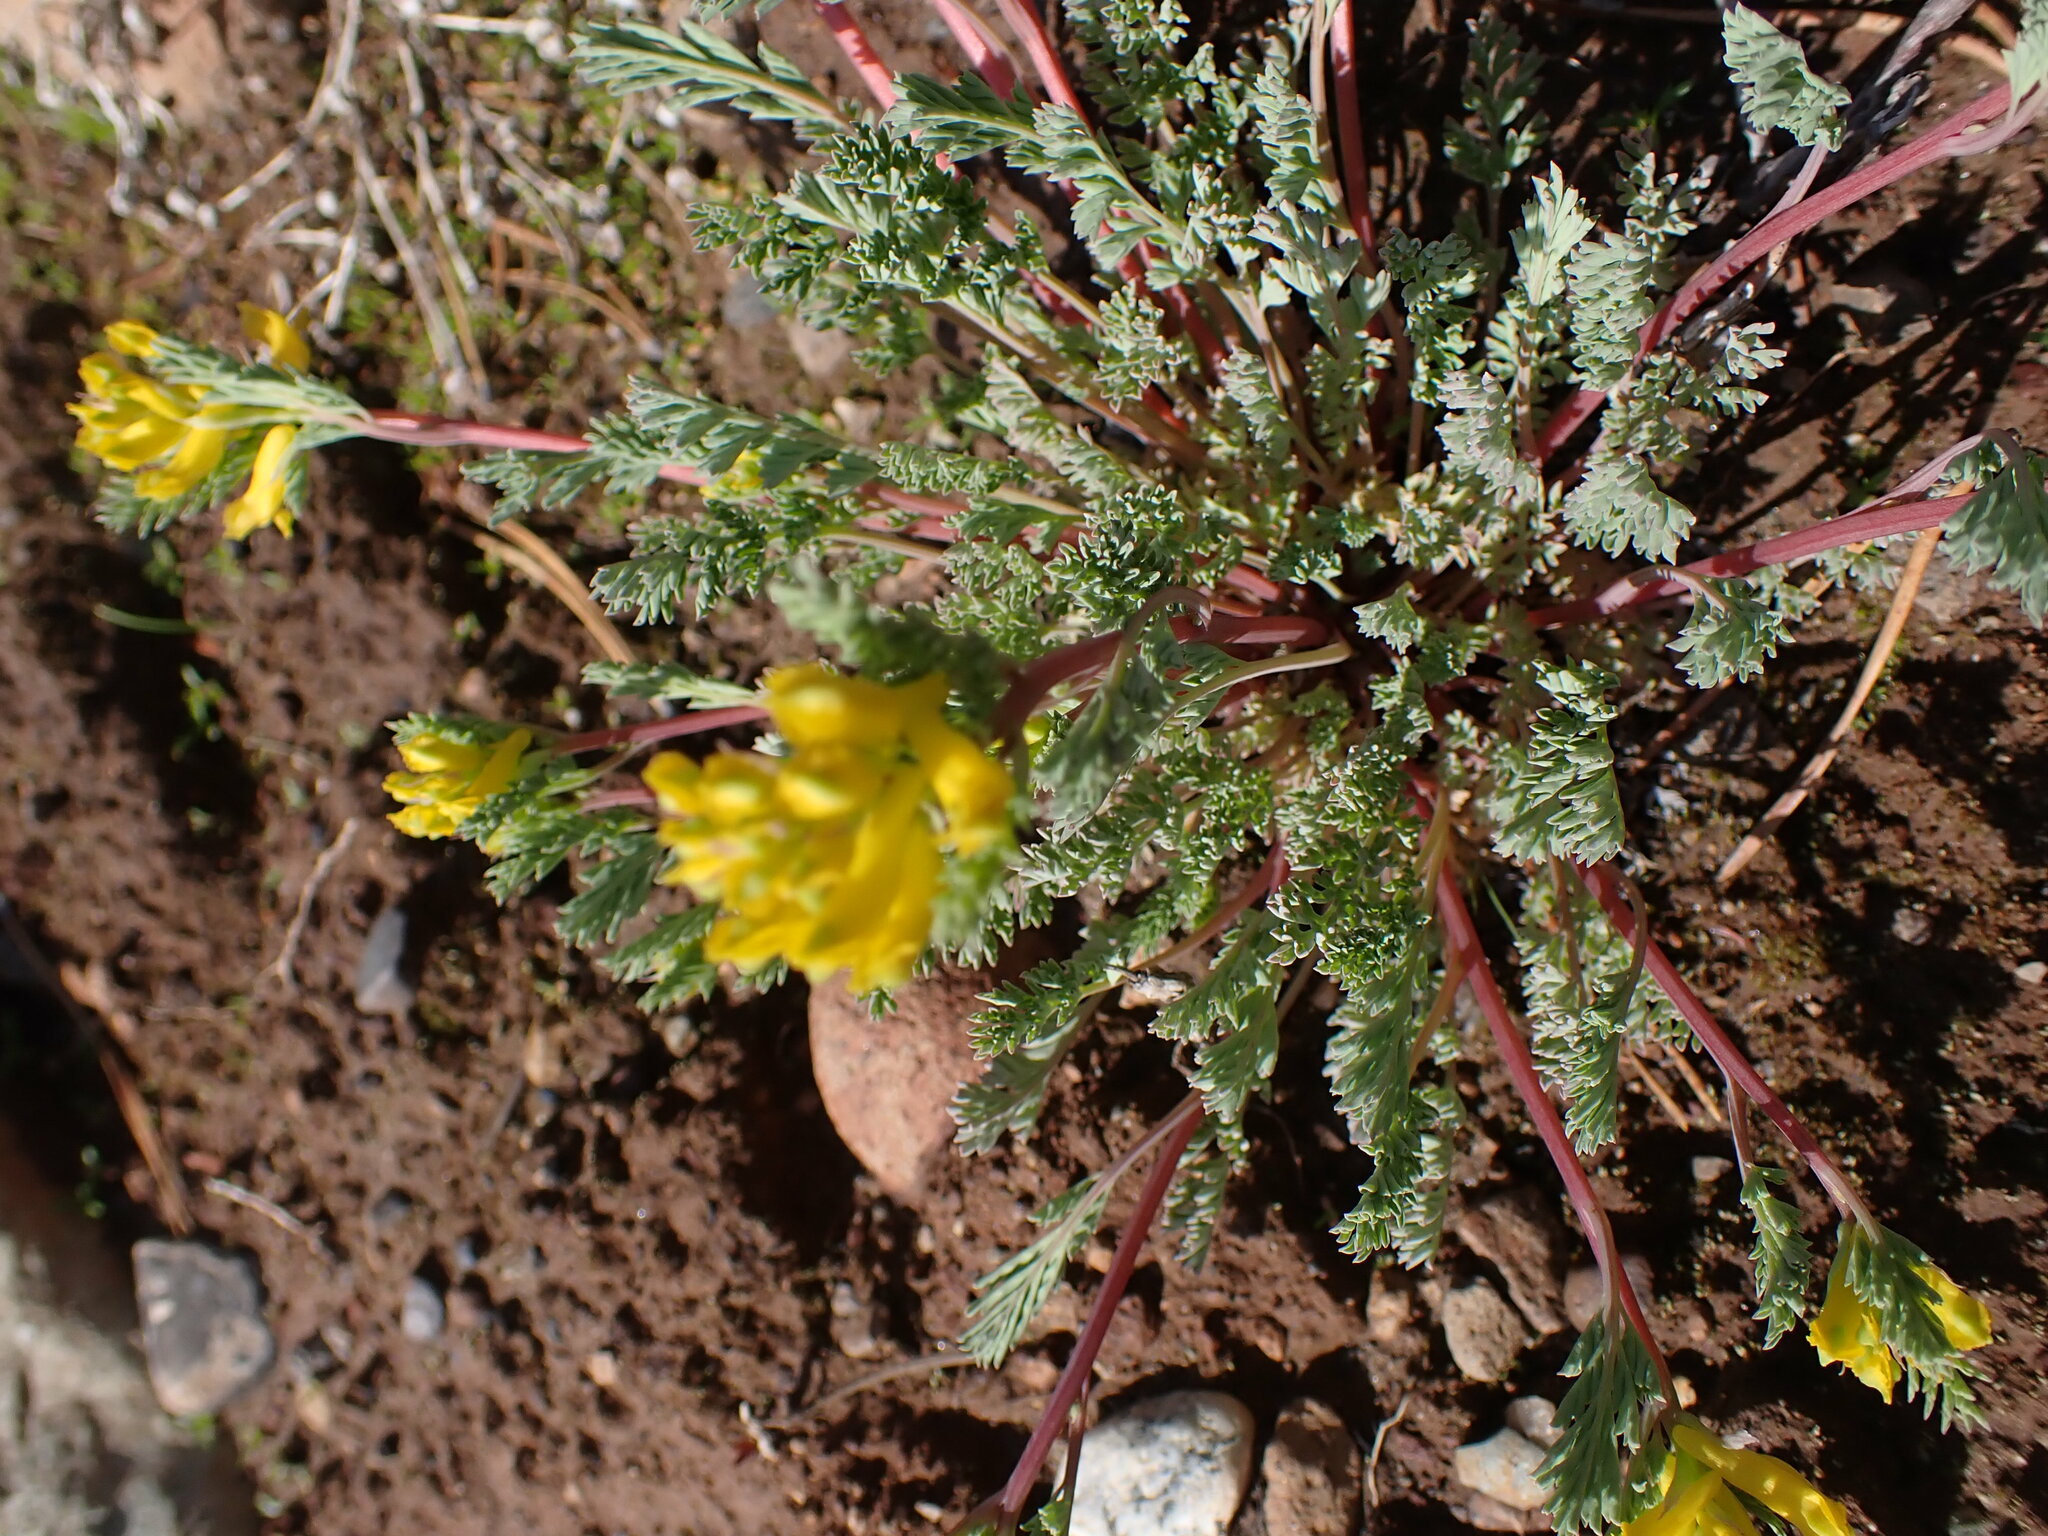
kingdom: Plantae
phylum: Tracheophyta
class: Magnoliopsida
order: Ranunculales
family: Papaveraceae
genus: Corydalis
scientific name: Corydalis aurea
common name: Golden corydalis
